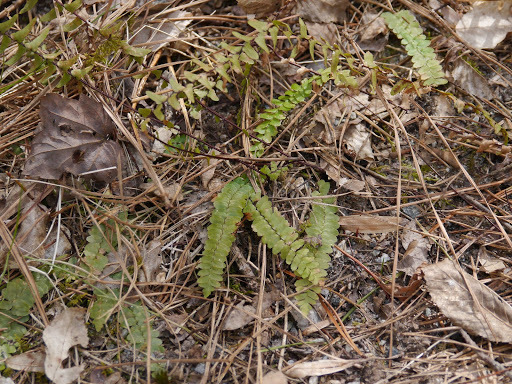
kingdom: Plantae
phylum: Tracheophyta
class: Polypodiopsida
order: Polypodiales
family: Aspleniaceae
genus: Asplenium
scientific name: Asplenium platyneuron
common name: Ebony spleenwort
